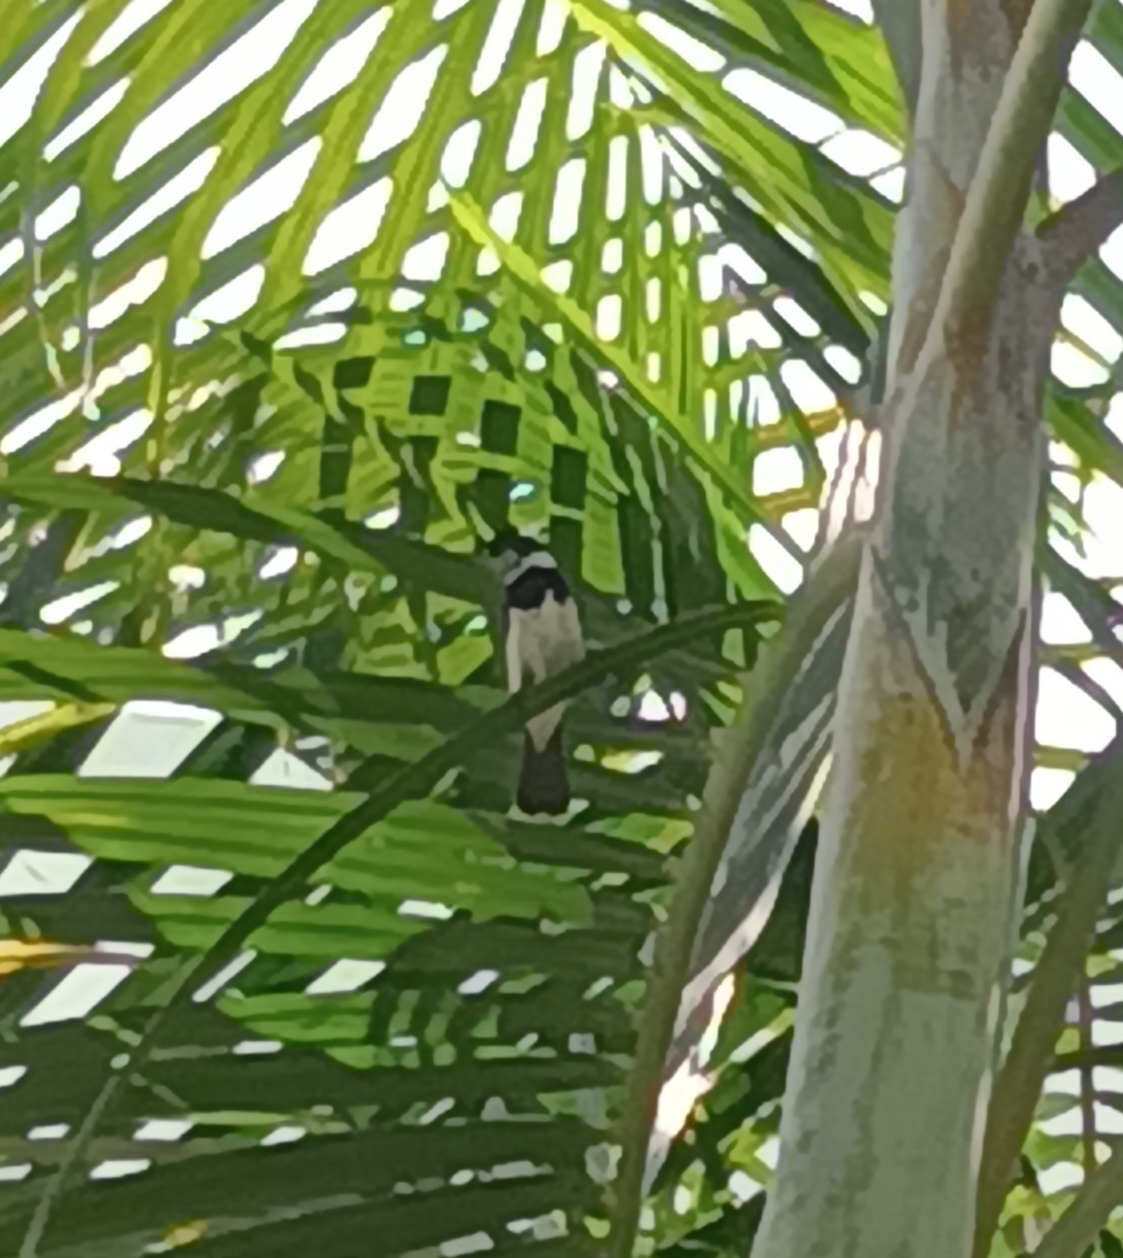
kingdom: Animalia
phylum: Chordata
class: Aves
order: Passeriformes
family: Thraupidae
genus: Sporophila
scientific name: Sporophila morelleti
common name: Morelet's seedeater
